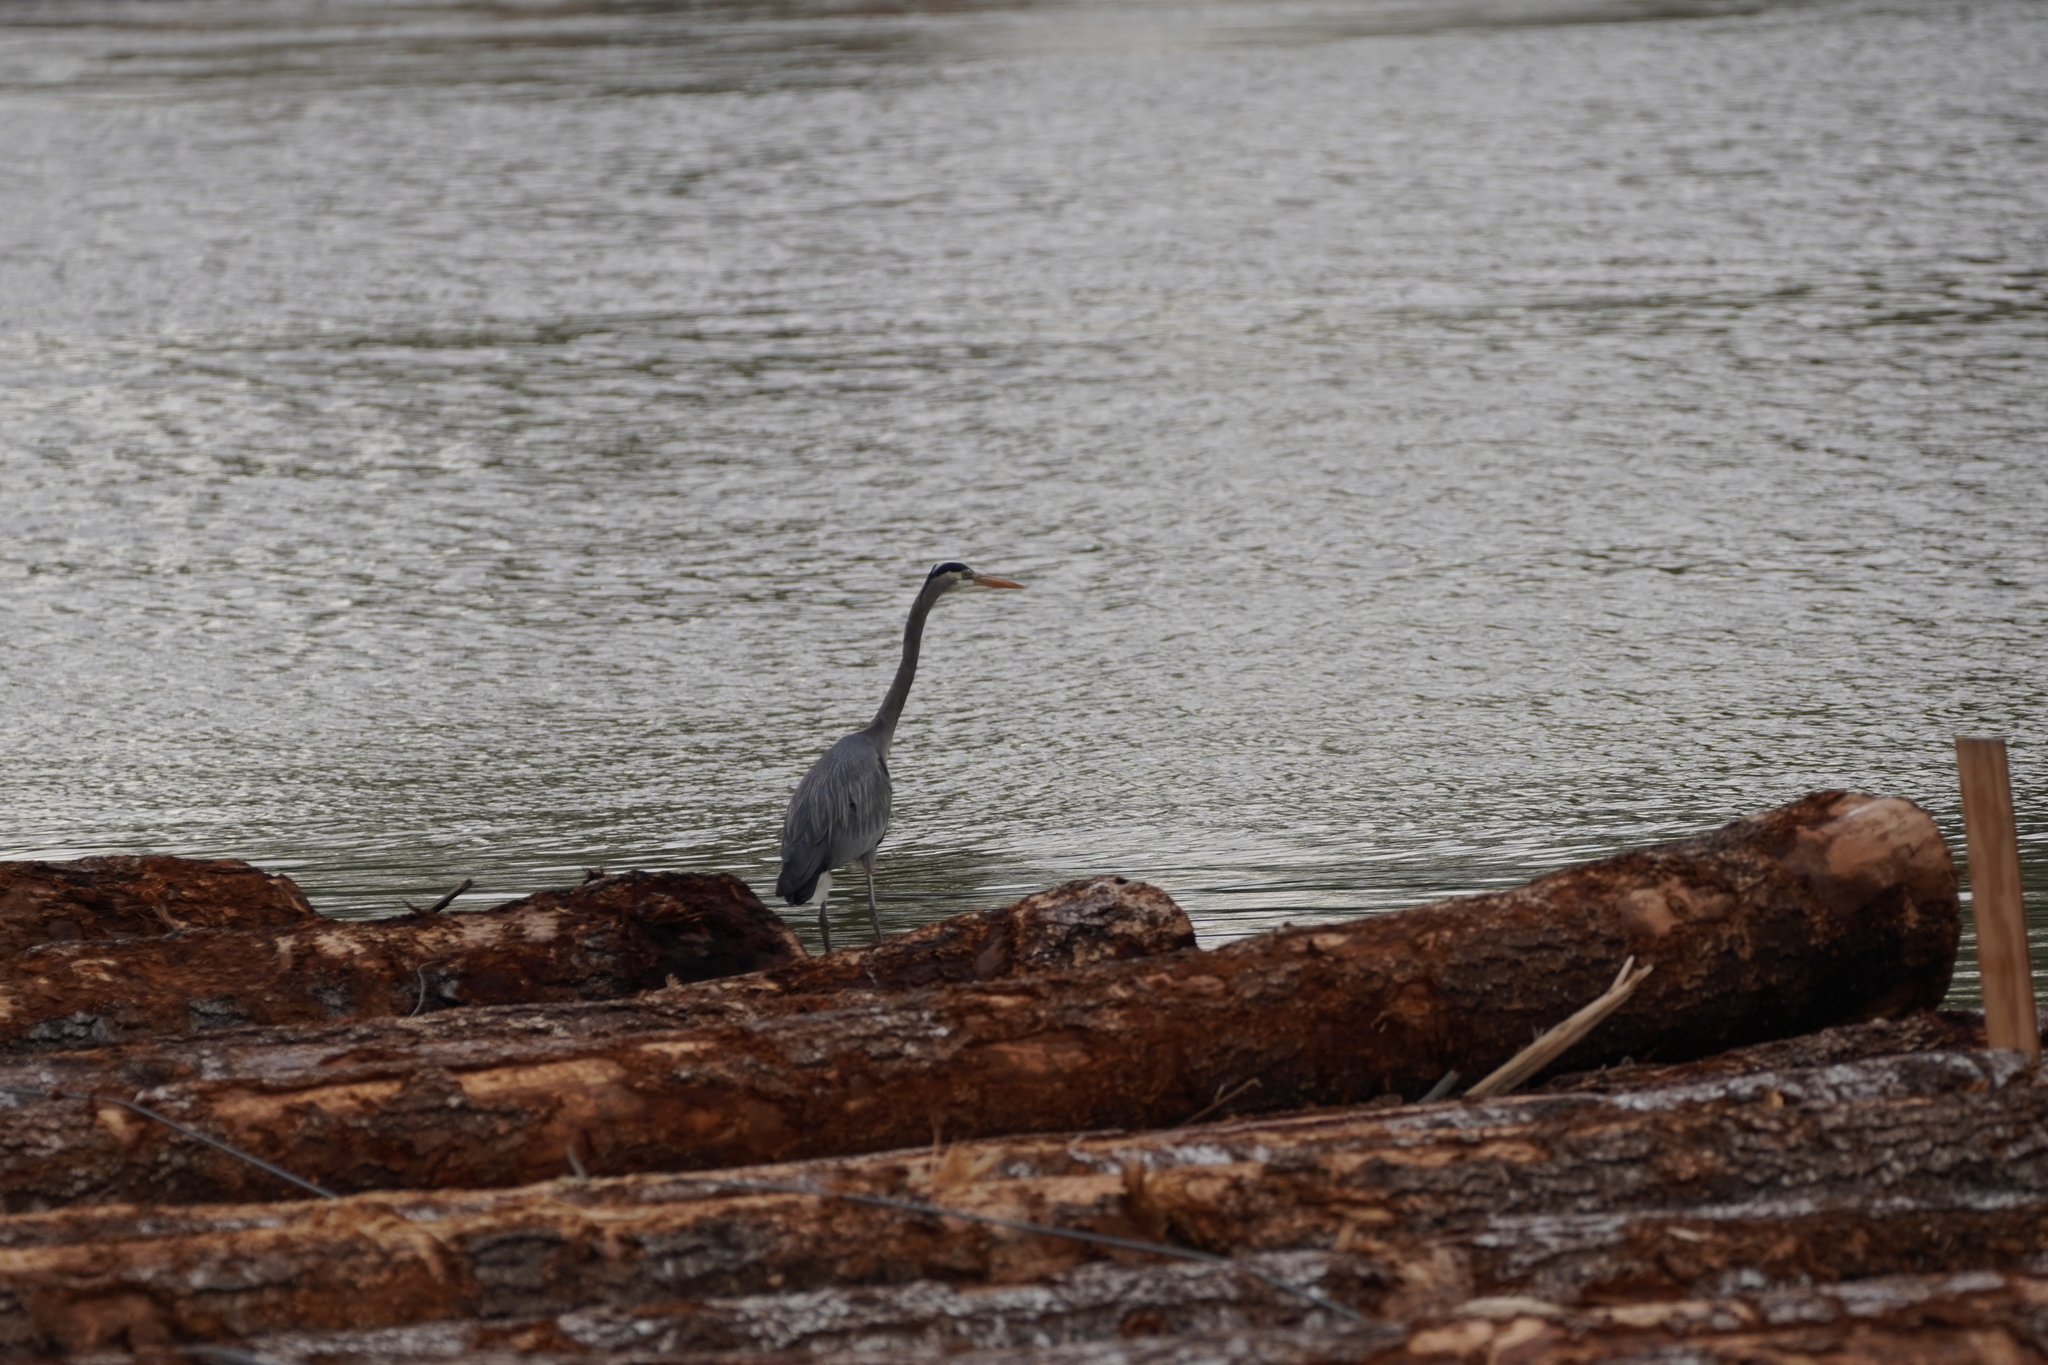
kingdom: Animalia
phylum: Chordata
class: Aves
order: Pelecaniformes
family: Ardeidae
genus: Ardea
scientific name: Ardea herodias
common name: Great blue heron
